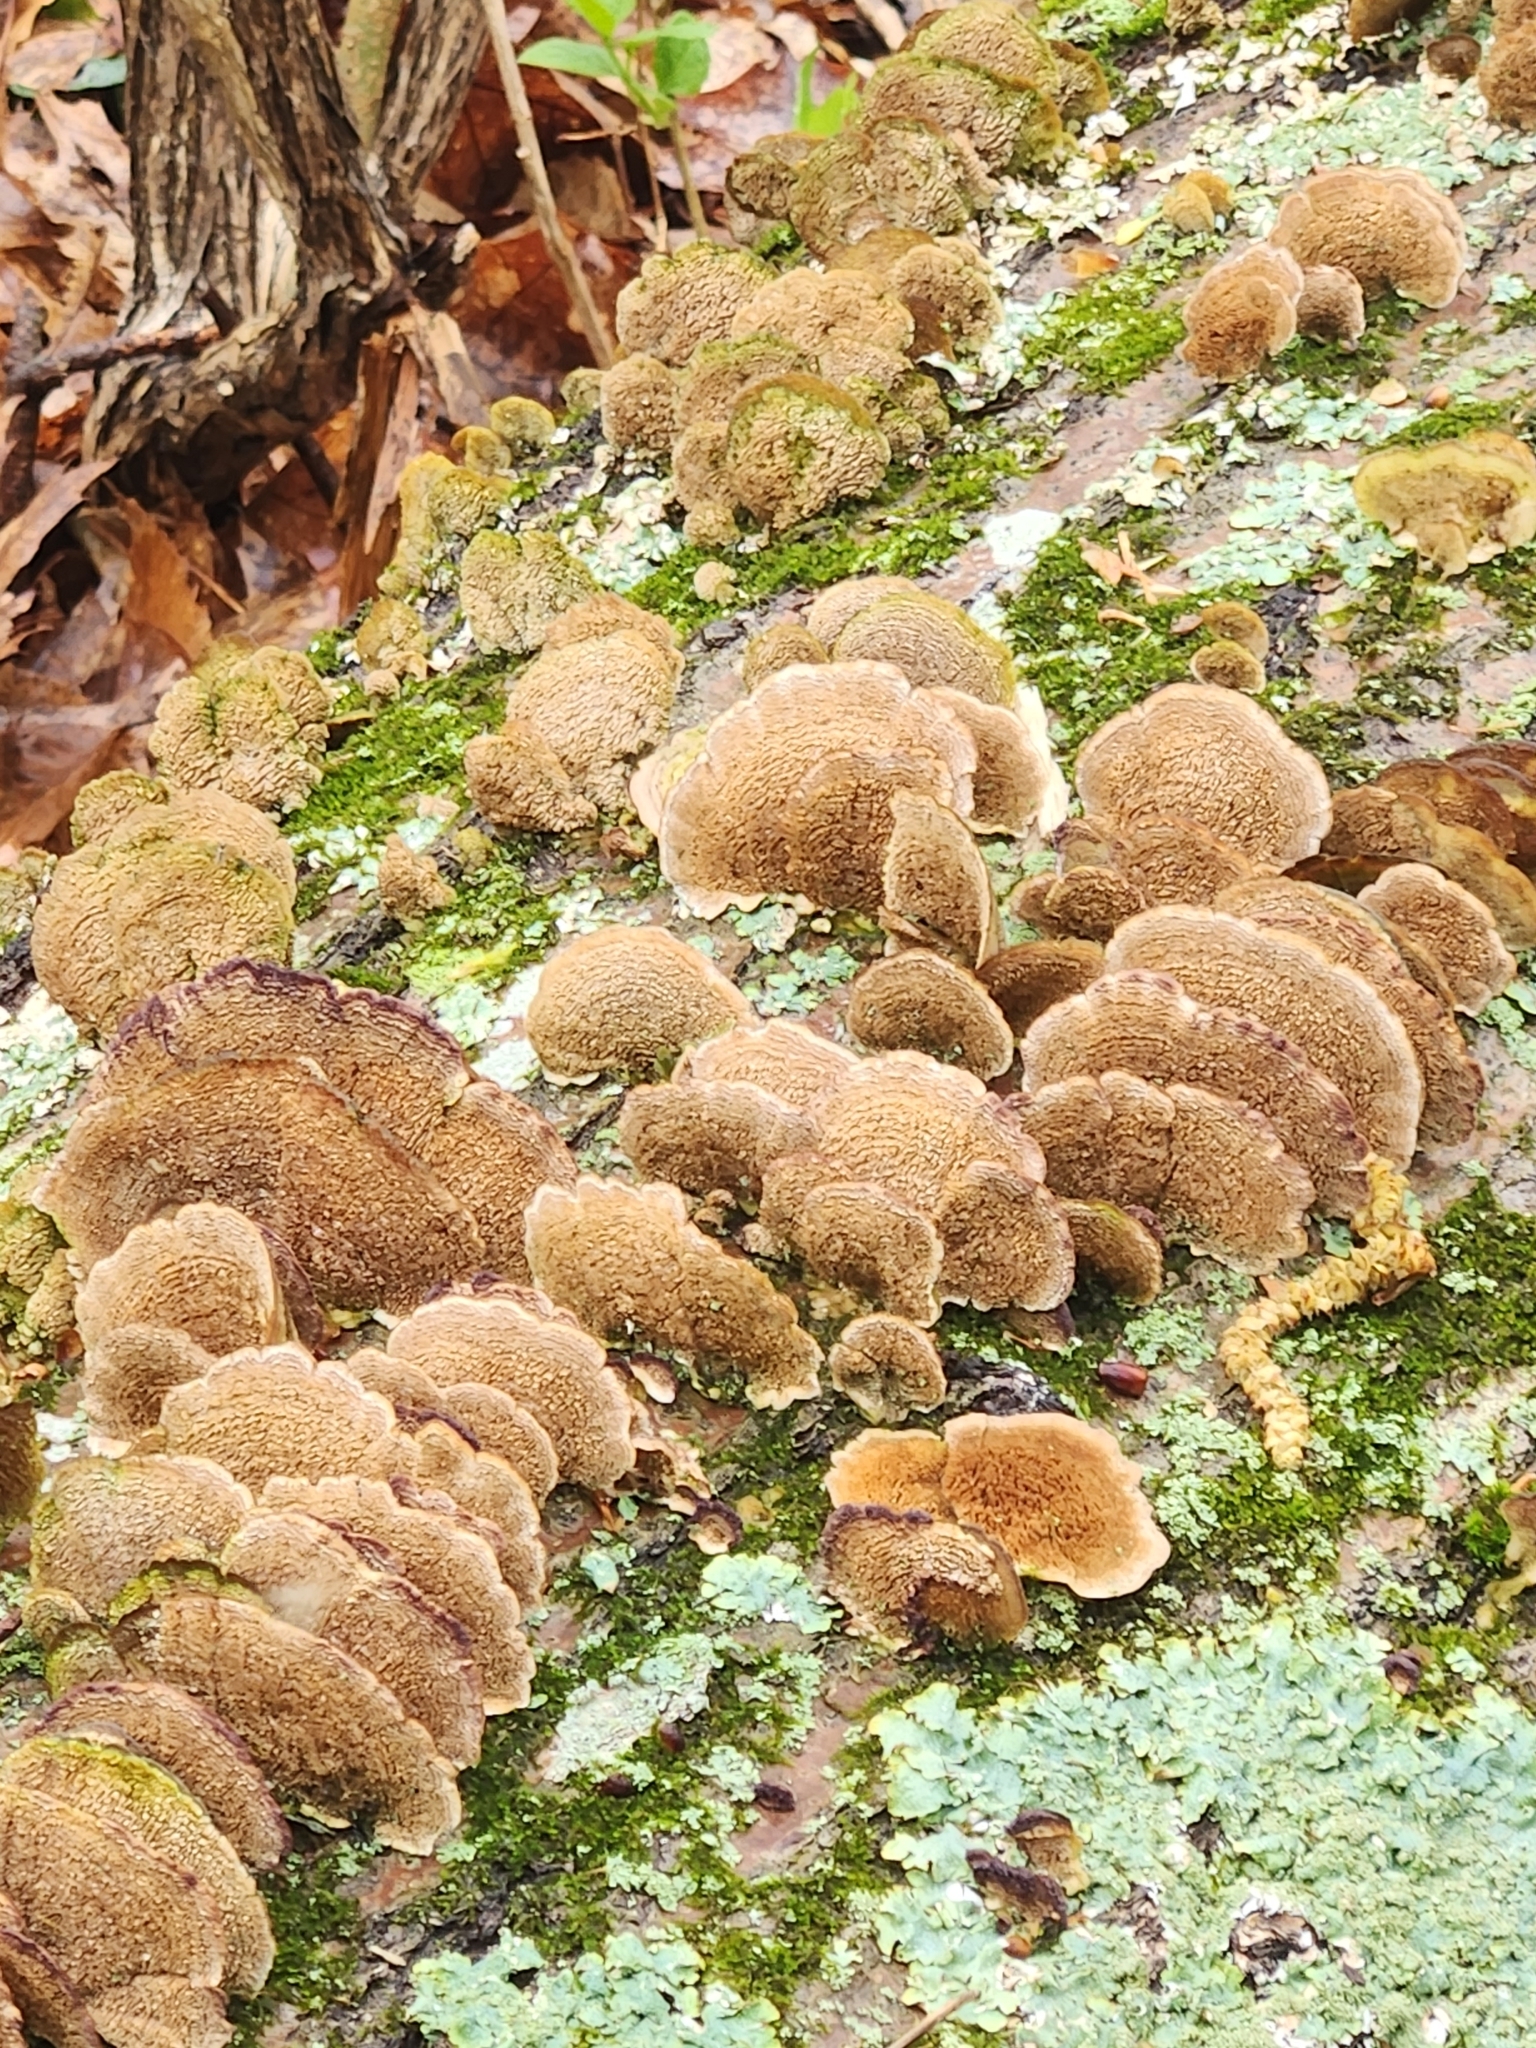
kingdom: Fungi
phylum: Basidiomycota
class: Agaricomycetes
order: Hymenochaetales
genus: Trichaptum
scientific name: Trichaptum biforme
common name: Violet-toothed polypore
